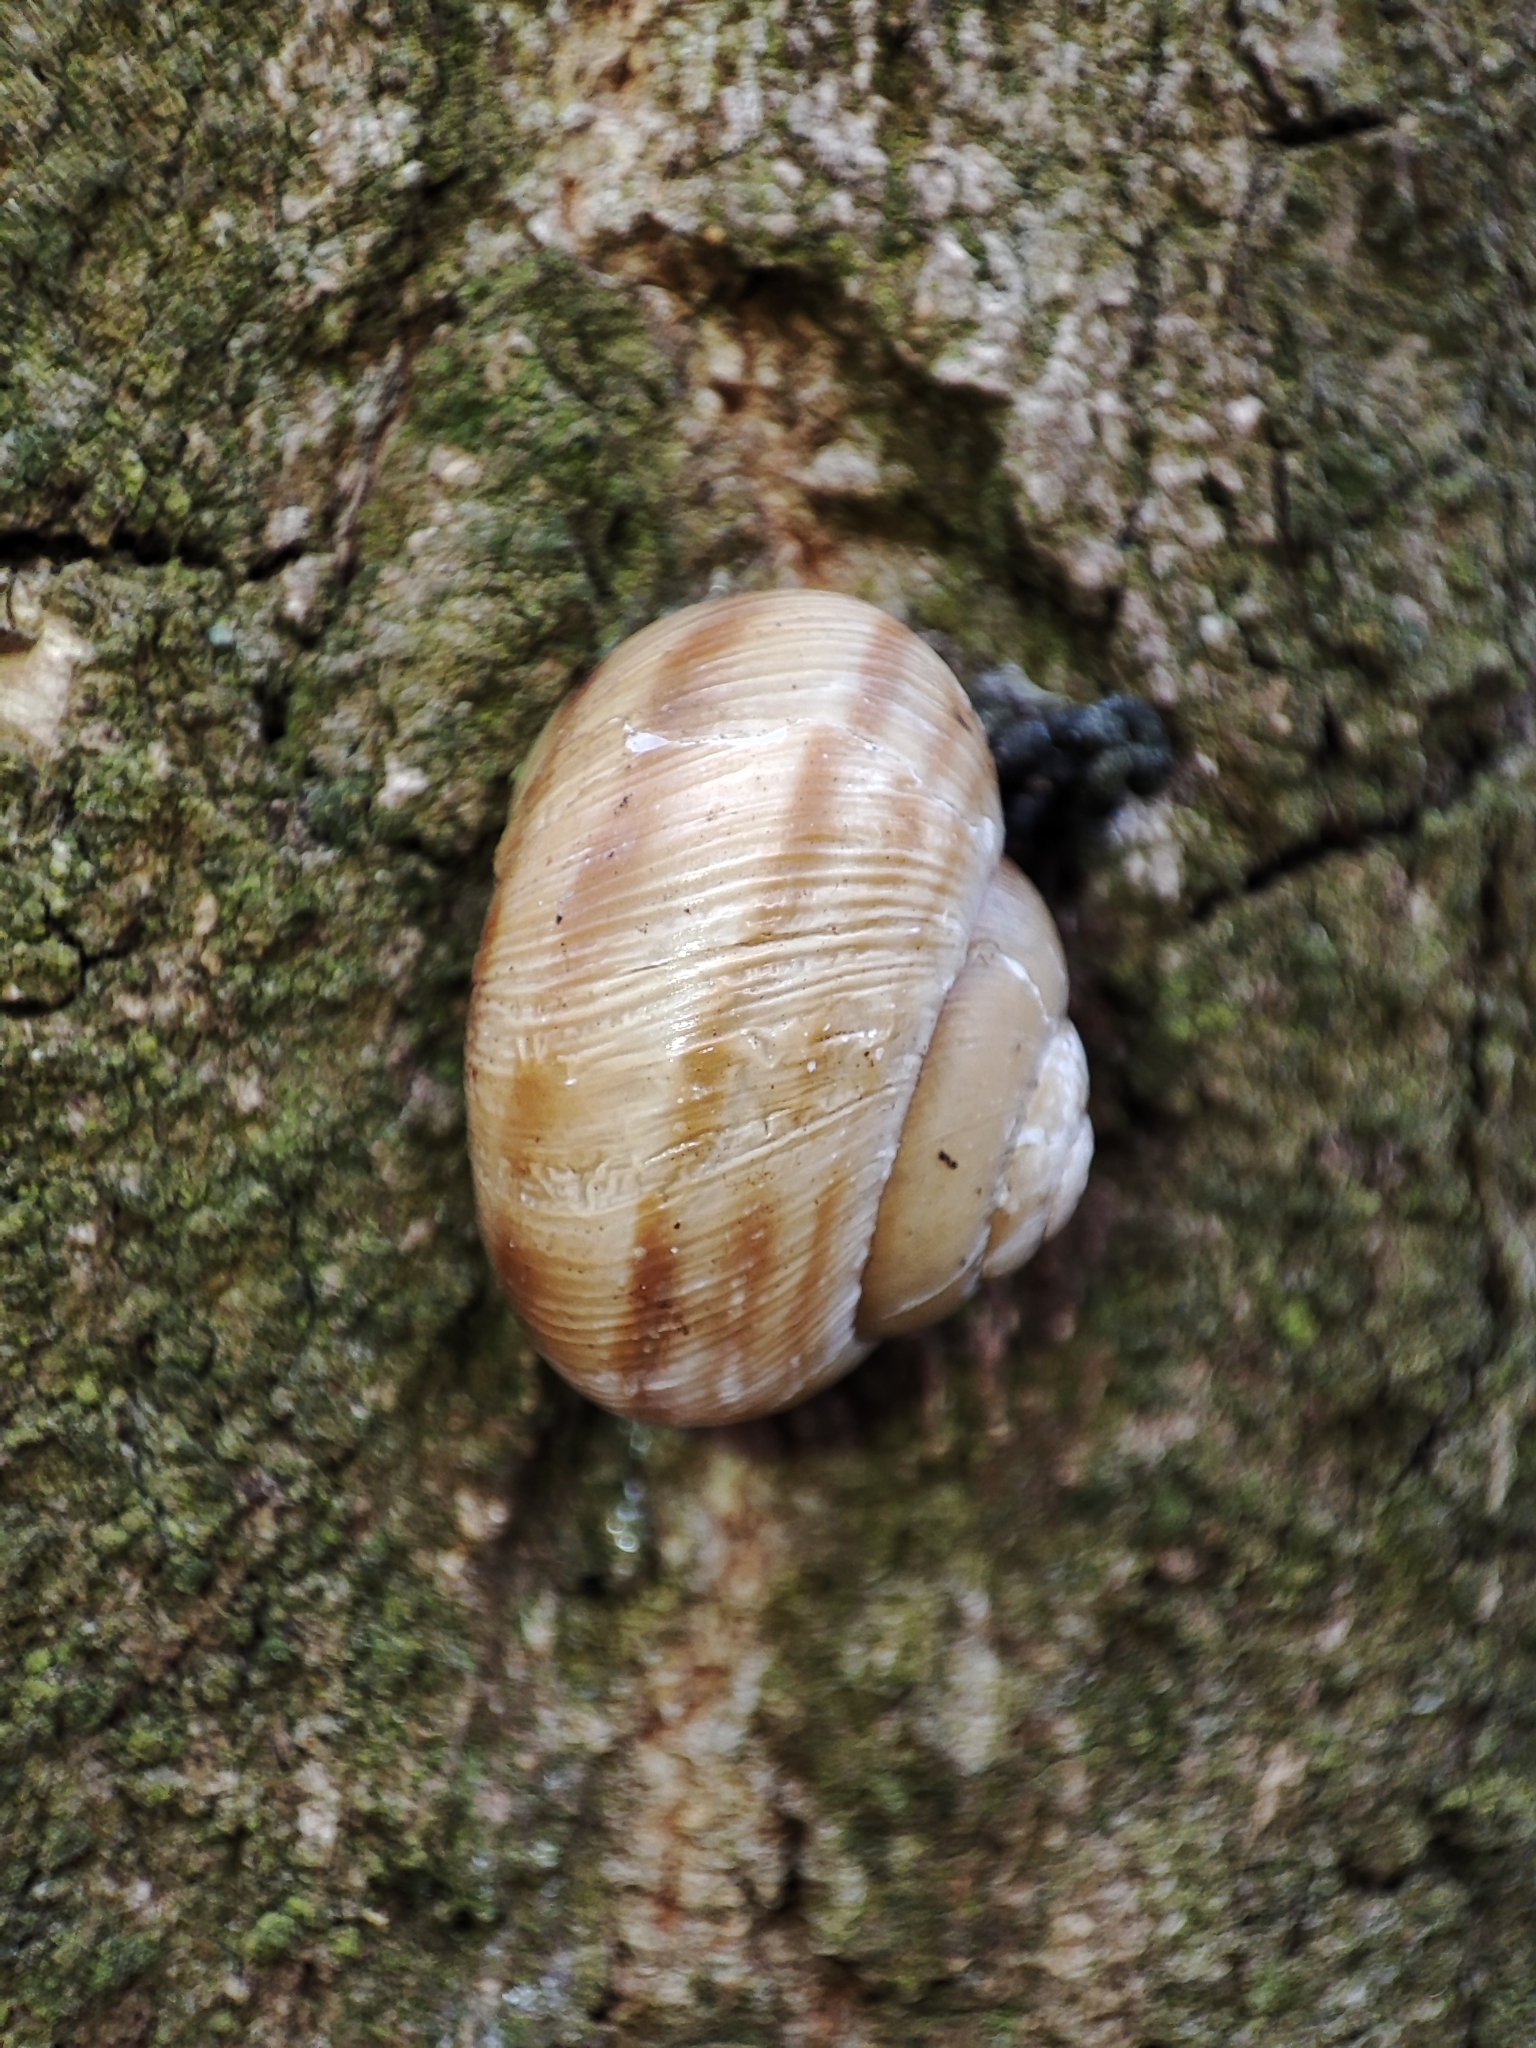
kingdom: Animalia
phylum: Mollusca
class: Gastropoda
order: Stylommatophora
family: Helicidae
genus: Caucasotachea
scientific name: Caucasotachea vindobonensis
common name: European helicid land snail
